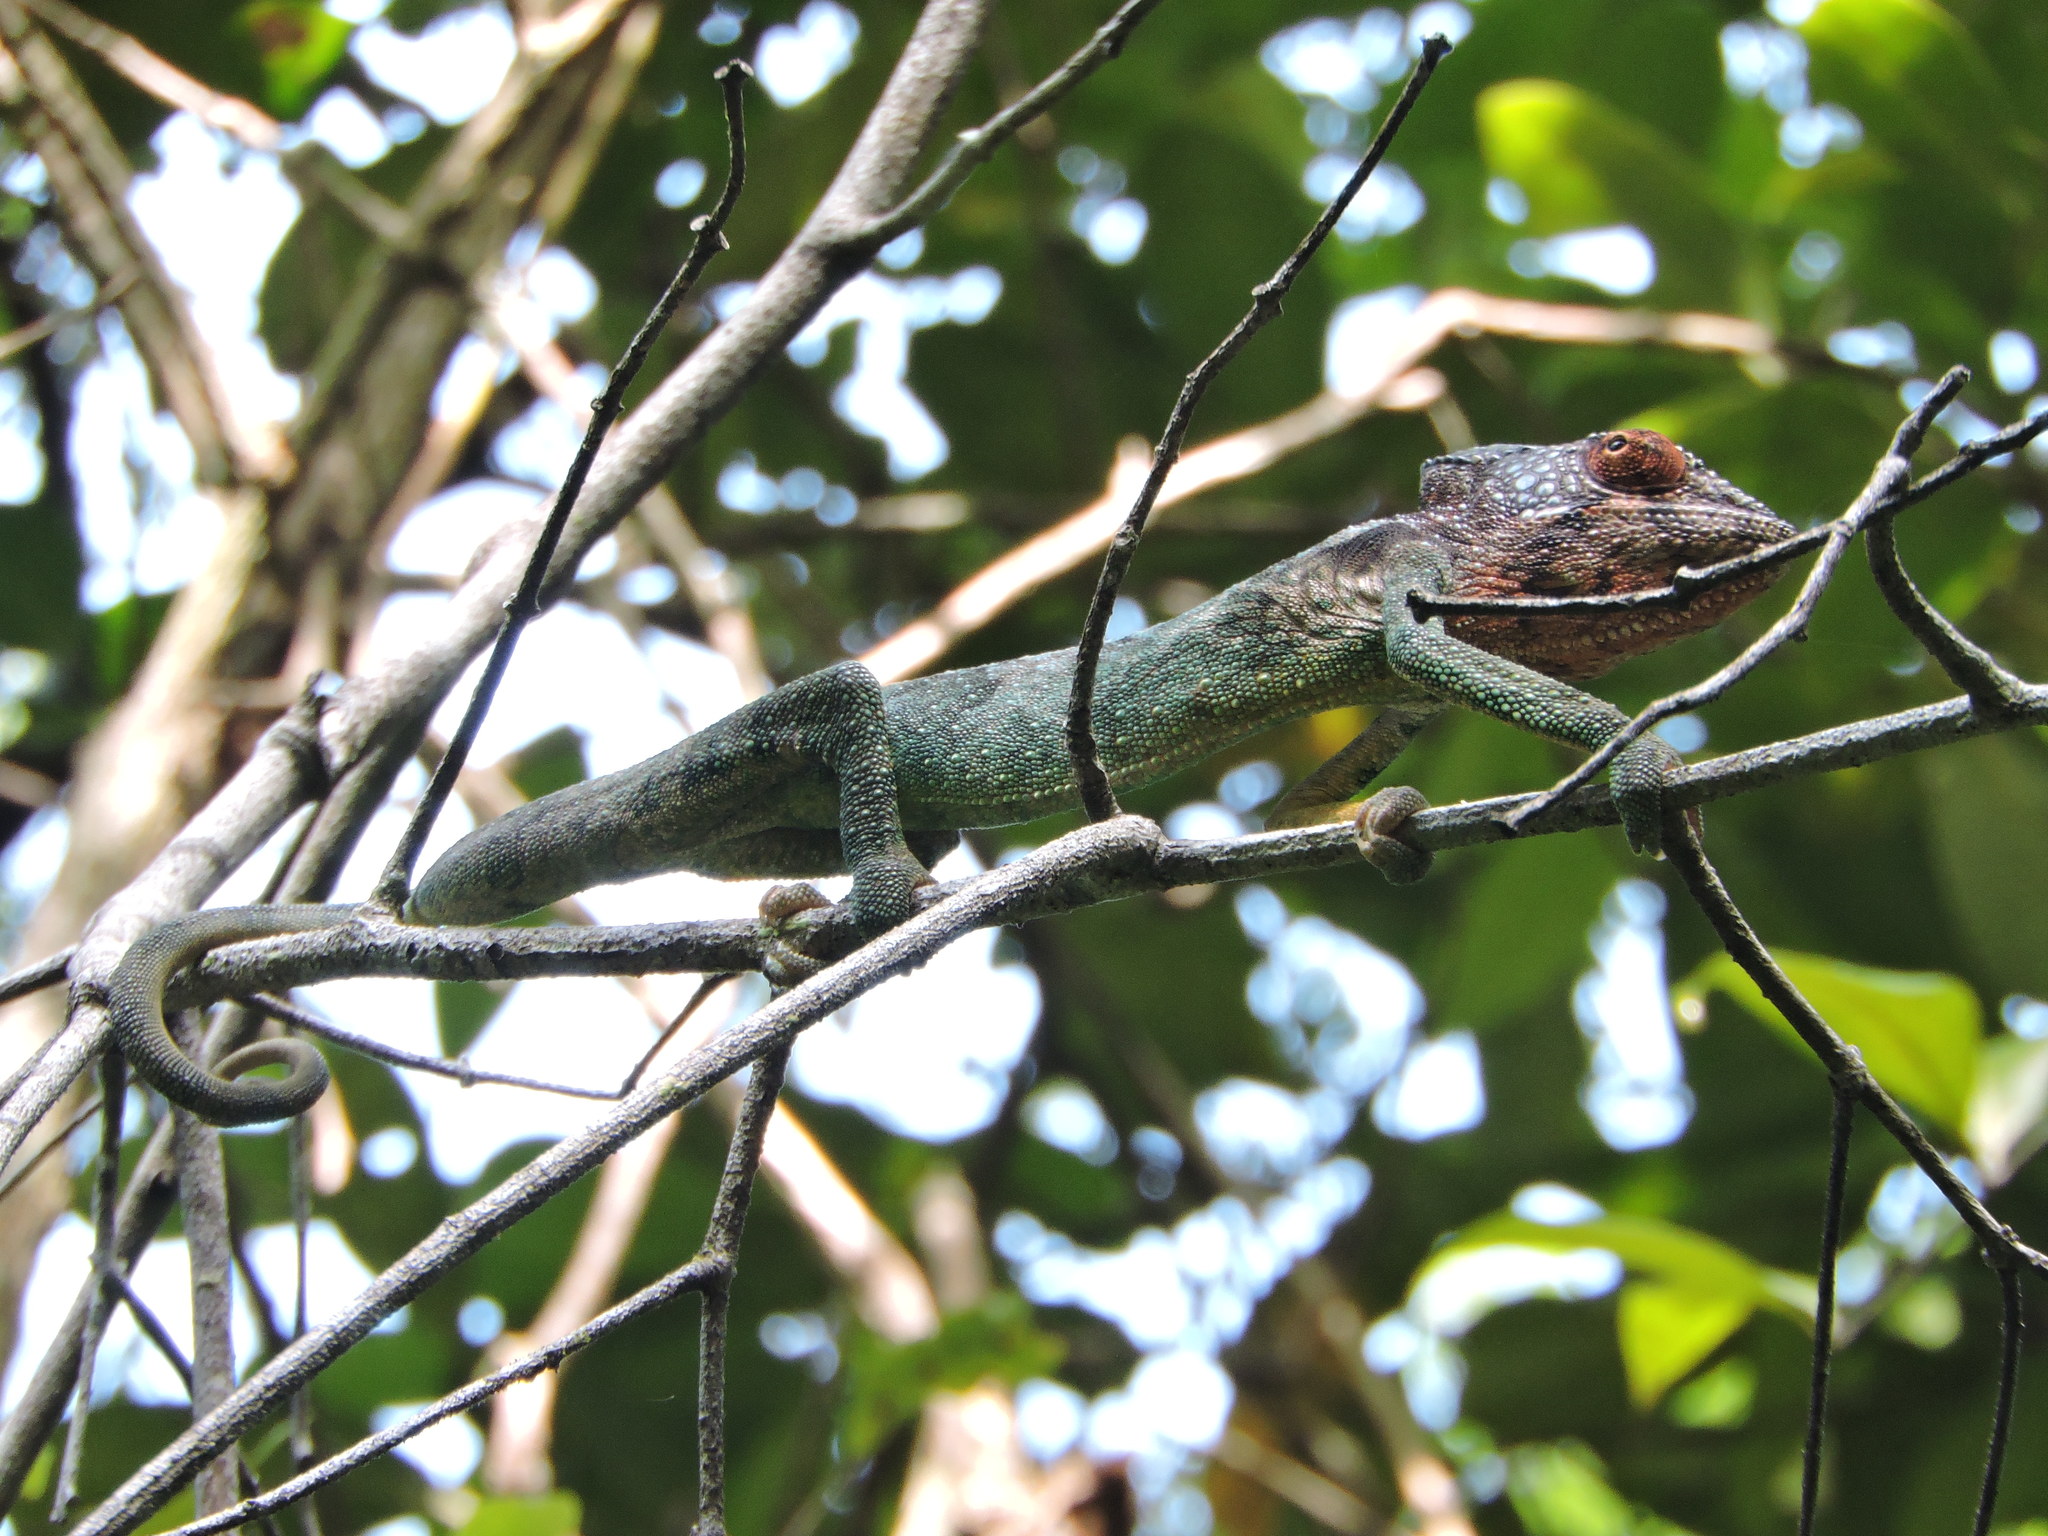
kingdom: Animalia
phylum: Chordata
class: Squamata
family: Chamaeleonidae
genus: Furcifer
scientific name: Furcifer verrucosus
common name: Warty chameleon
